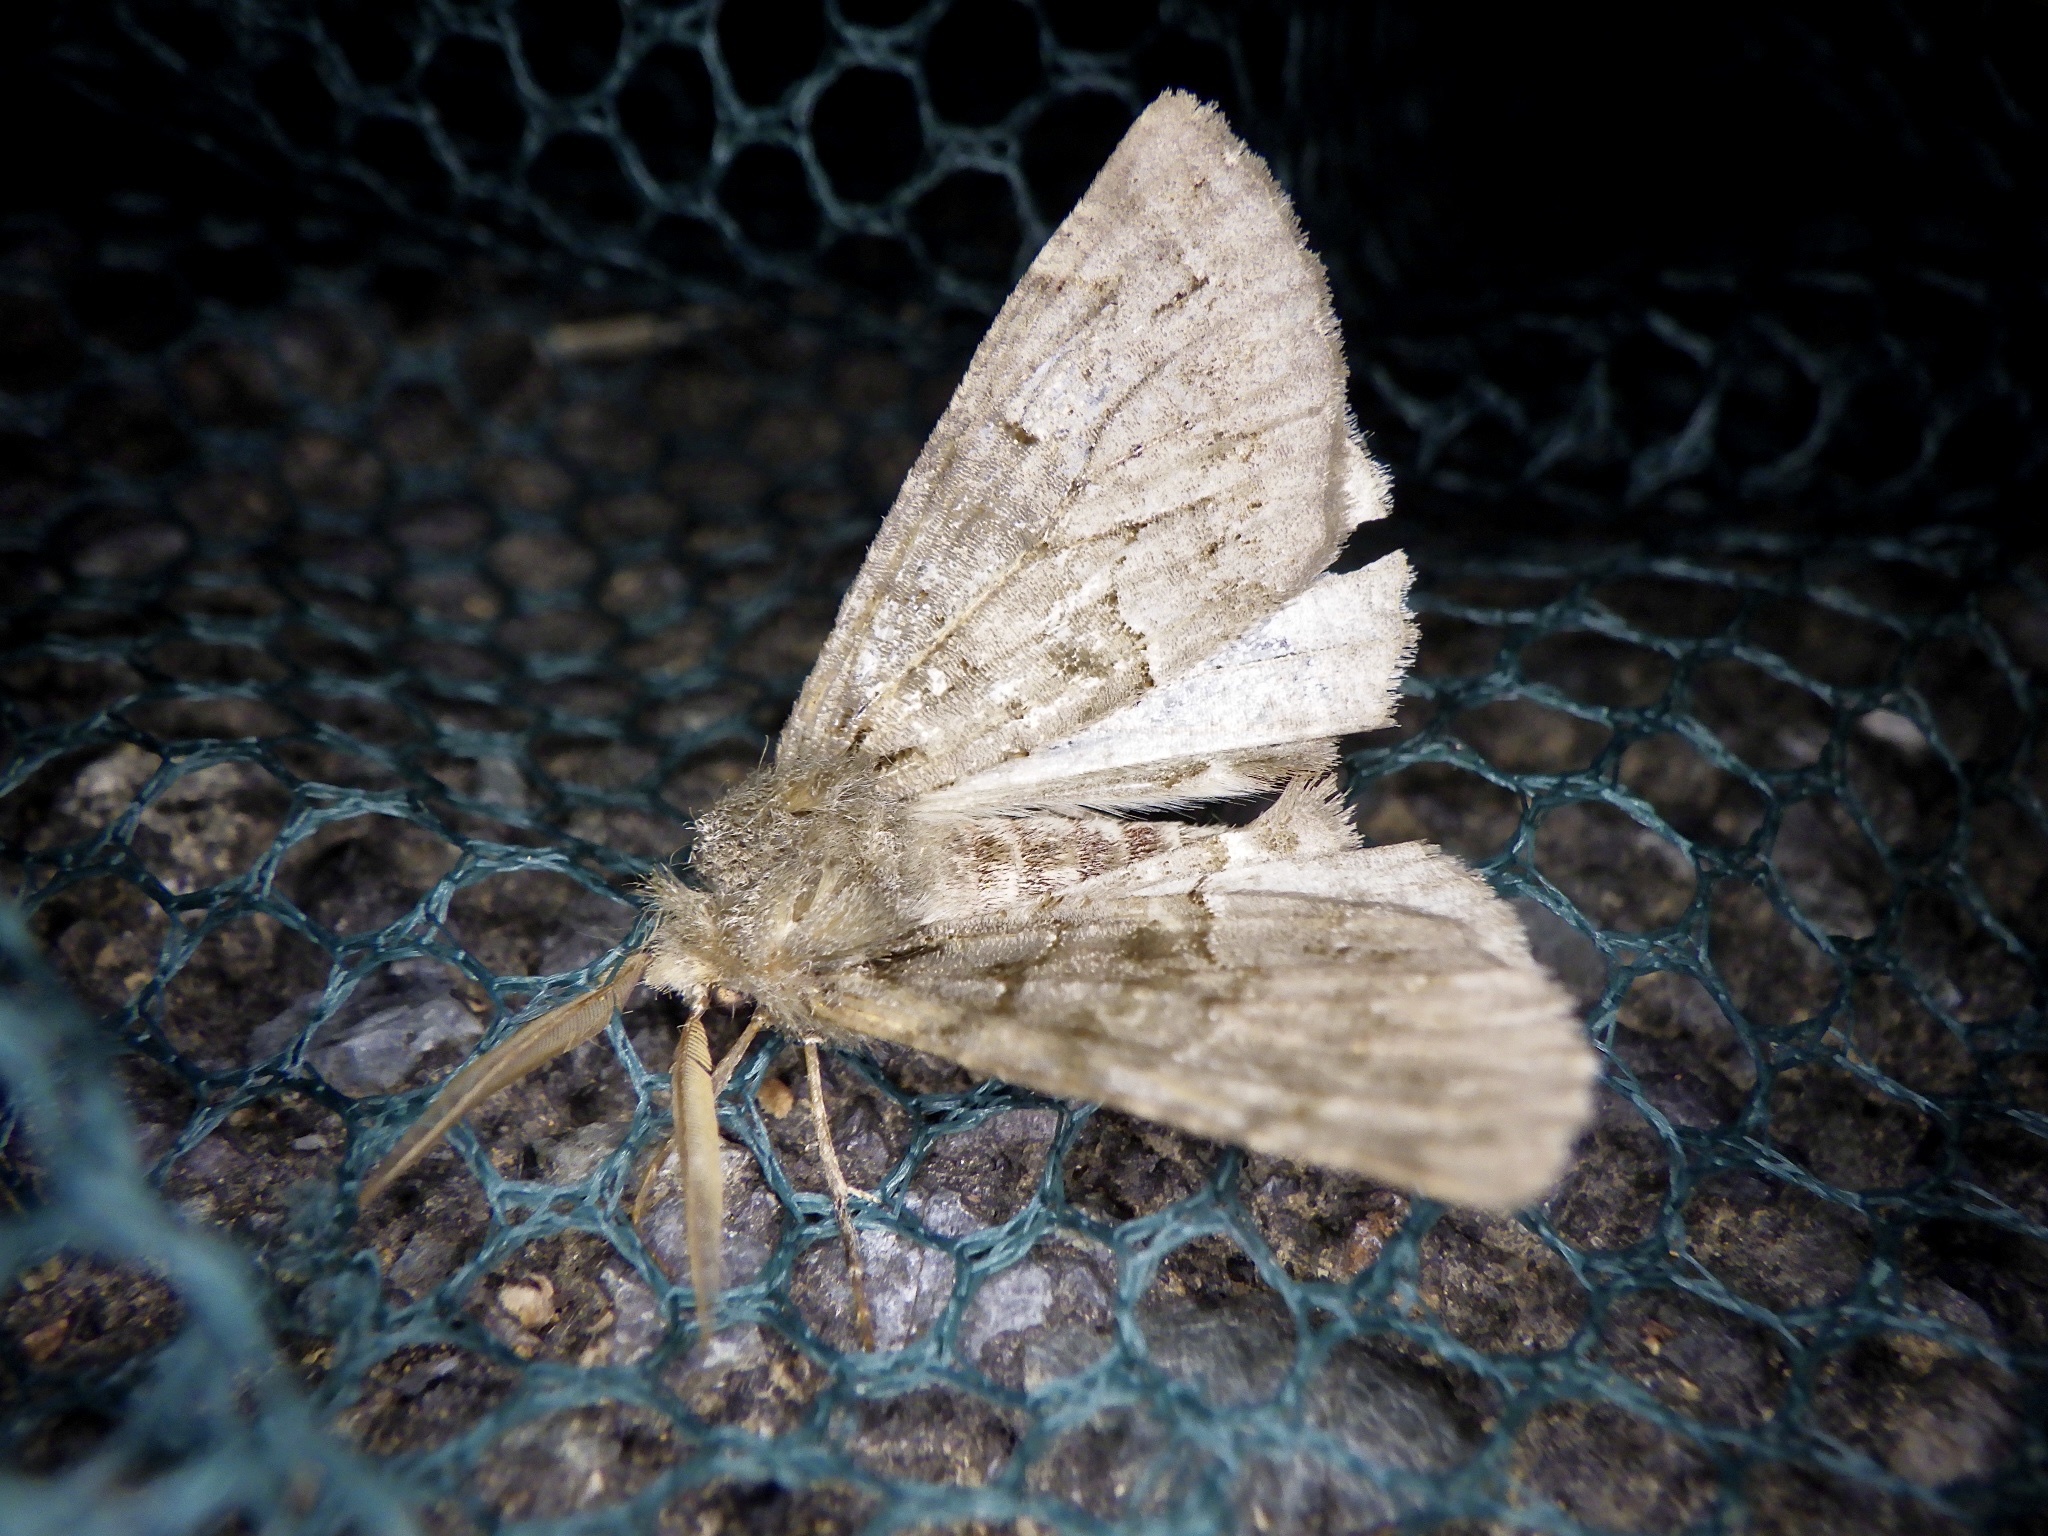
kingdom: Animalia
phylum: Arthropoda
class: Insecta
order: Lepidoptera
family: Geometridae
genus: Pachyligia
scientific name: Pachyligia dolosa
